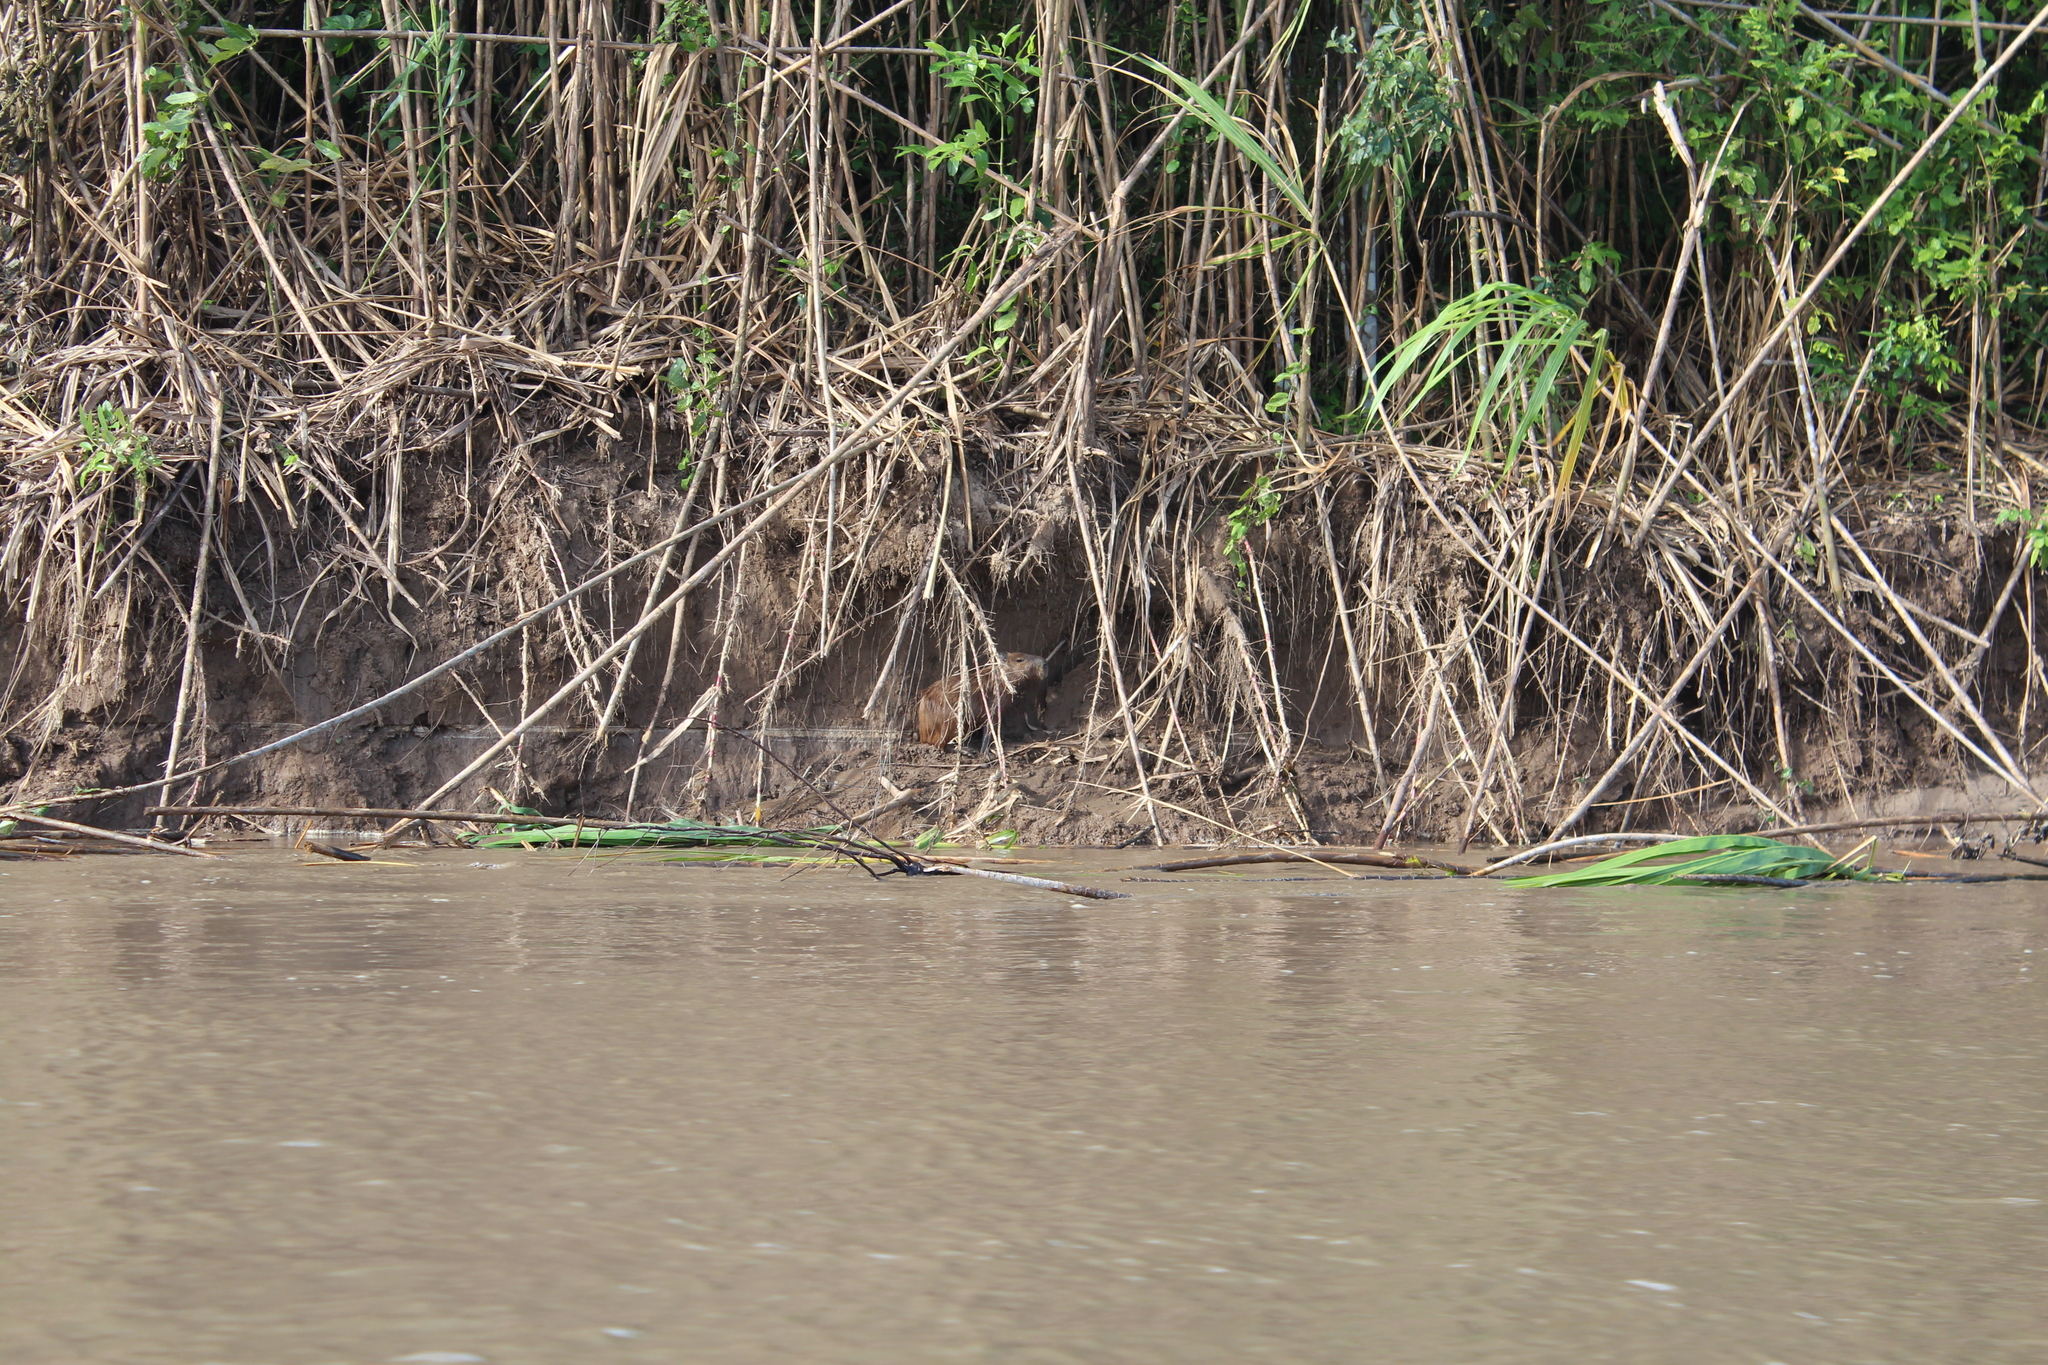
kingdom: Animalia
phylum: Chordata
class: Mammalia
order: Rodentia
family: Caviidae
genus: Hydrochoerus
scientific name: Hydrochoerus hydrochaeris
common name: Capybara
